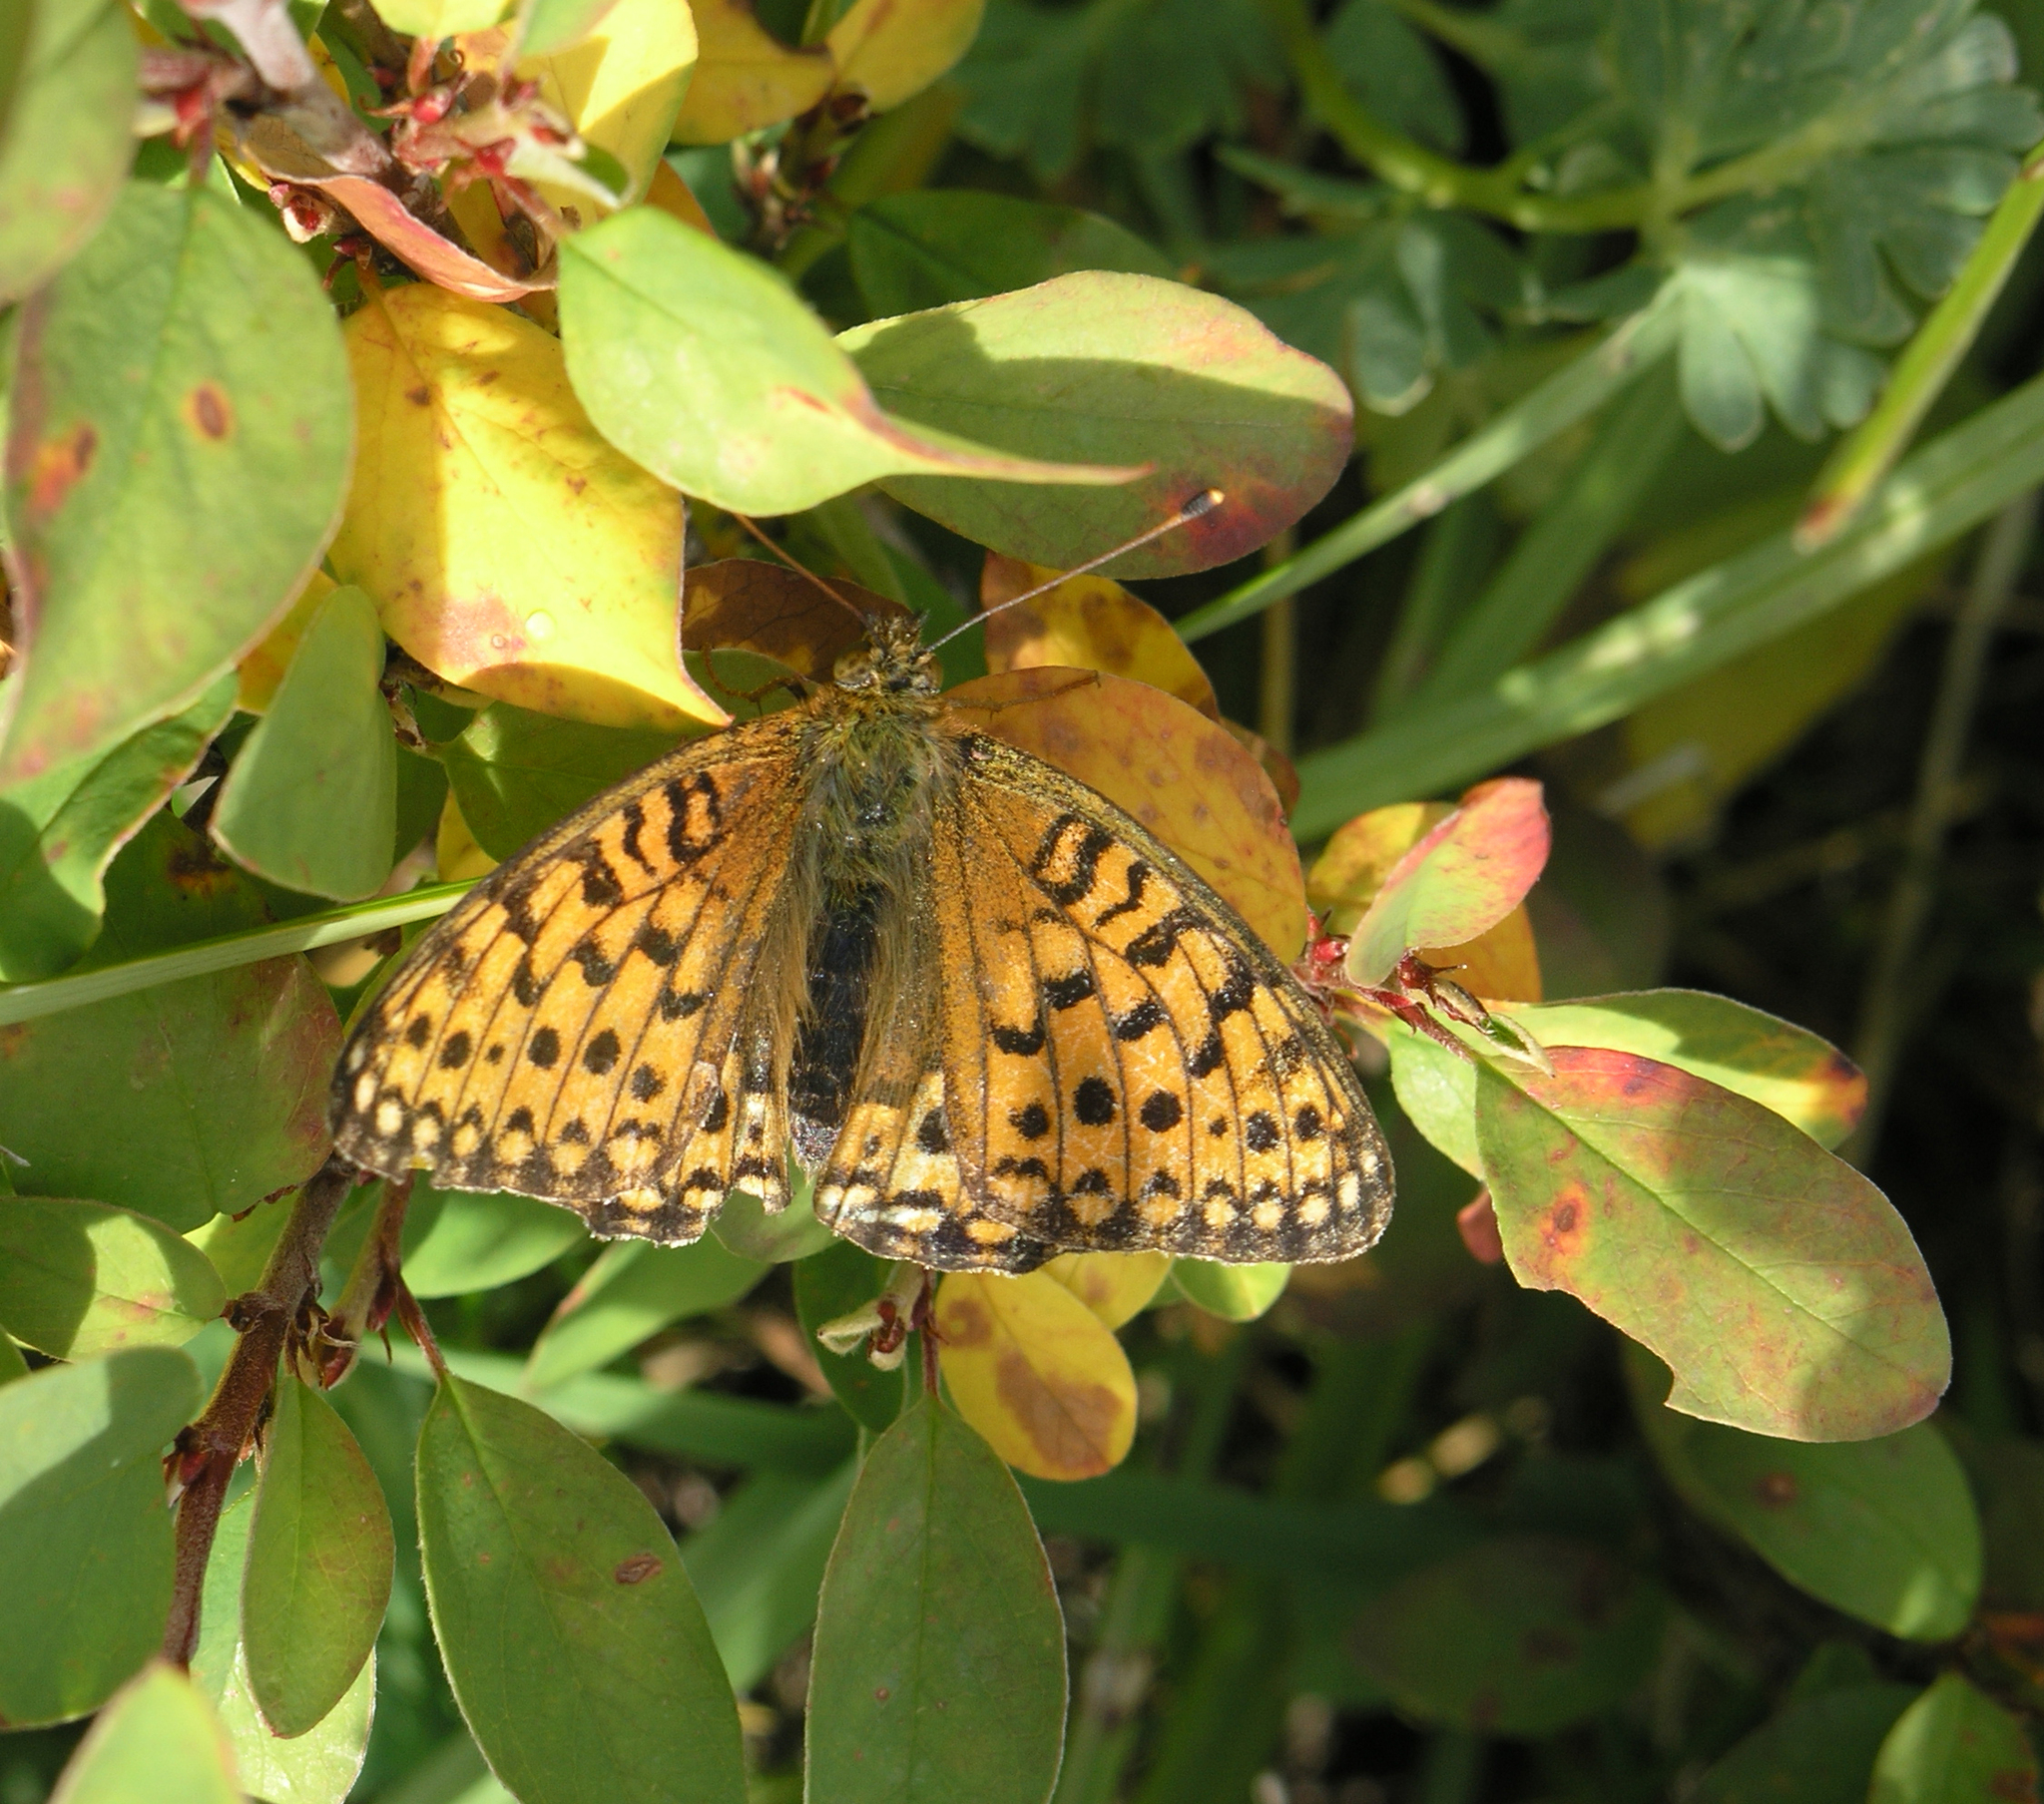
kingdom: Animalia
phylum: Arthropoda
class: Insecta
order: Lepidoptera
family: Nymphalidae
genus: Speyeria
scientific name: Speyeria aglaja
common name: Dark green fritillary
